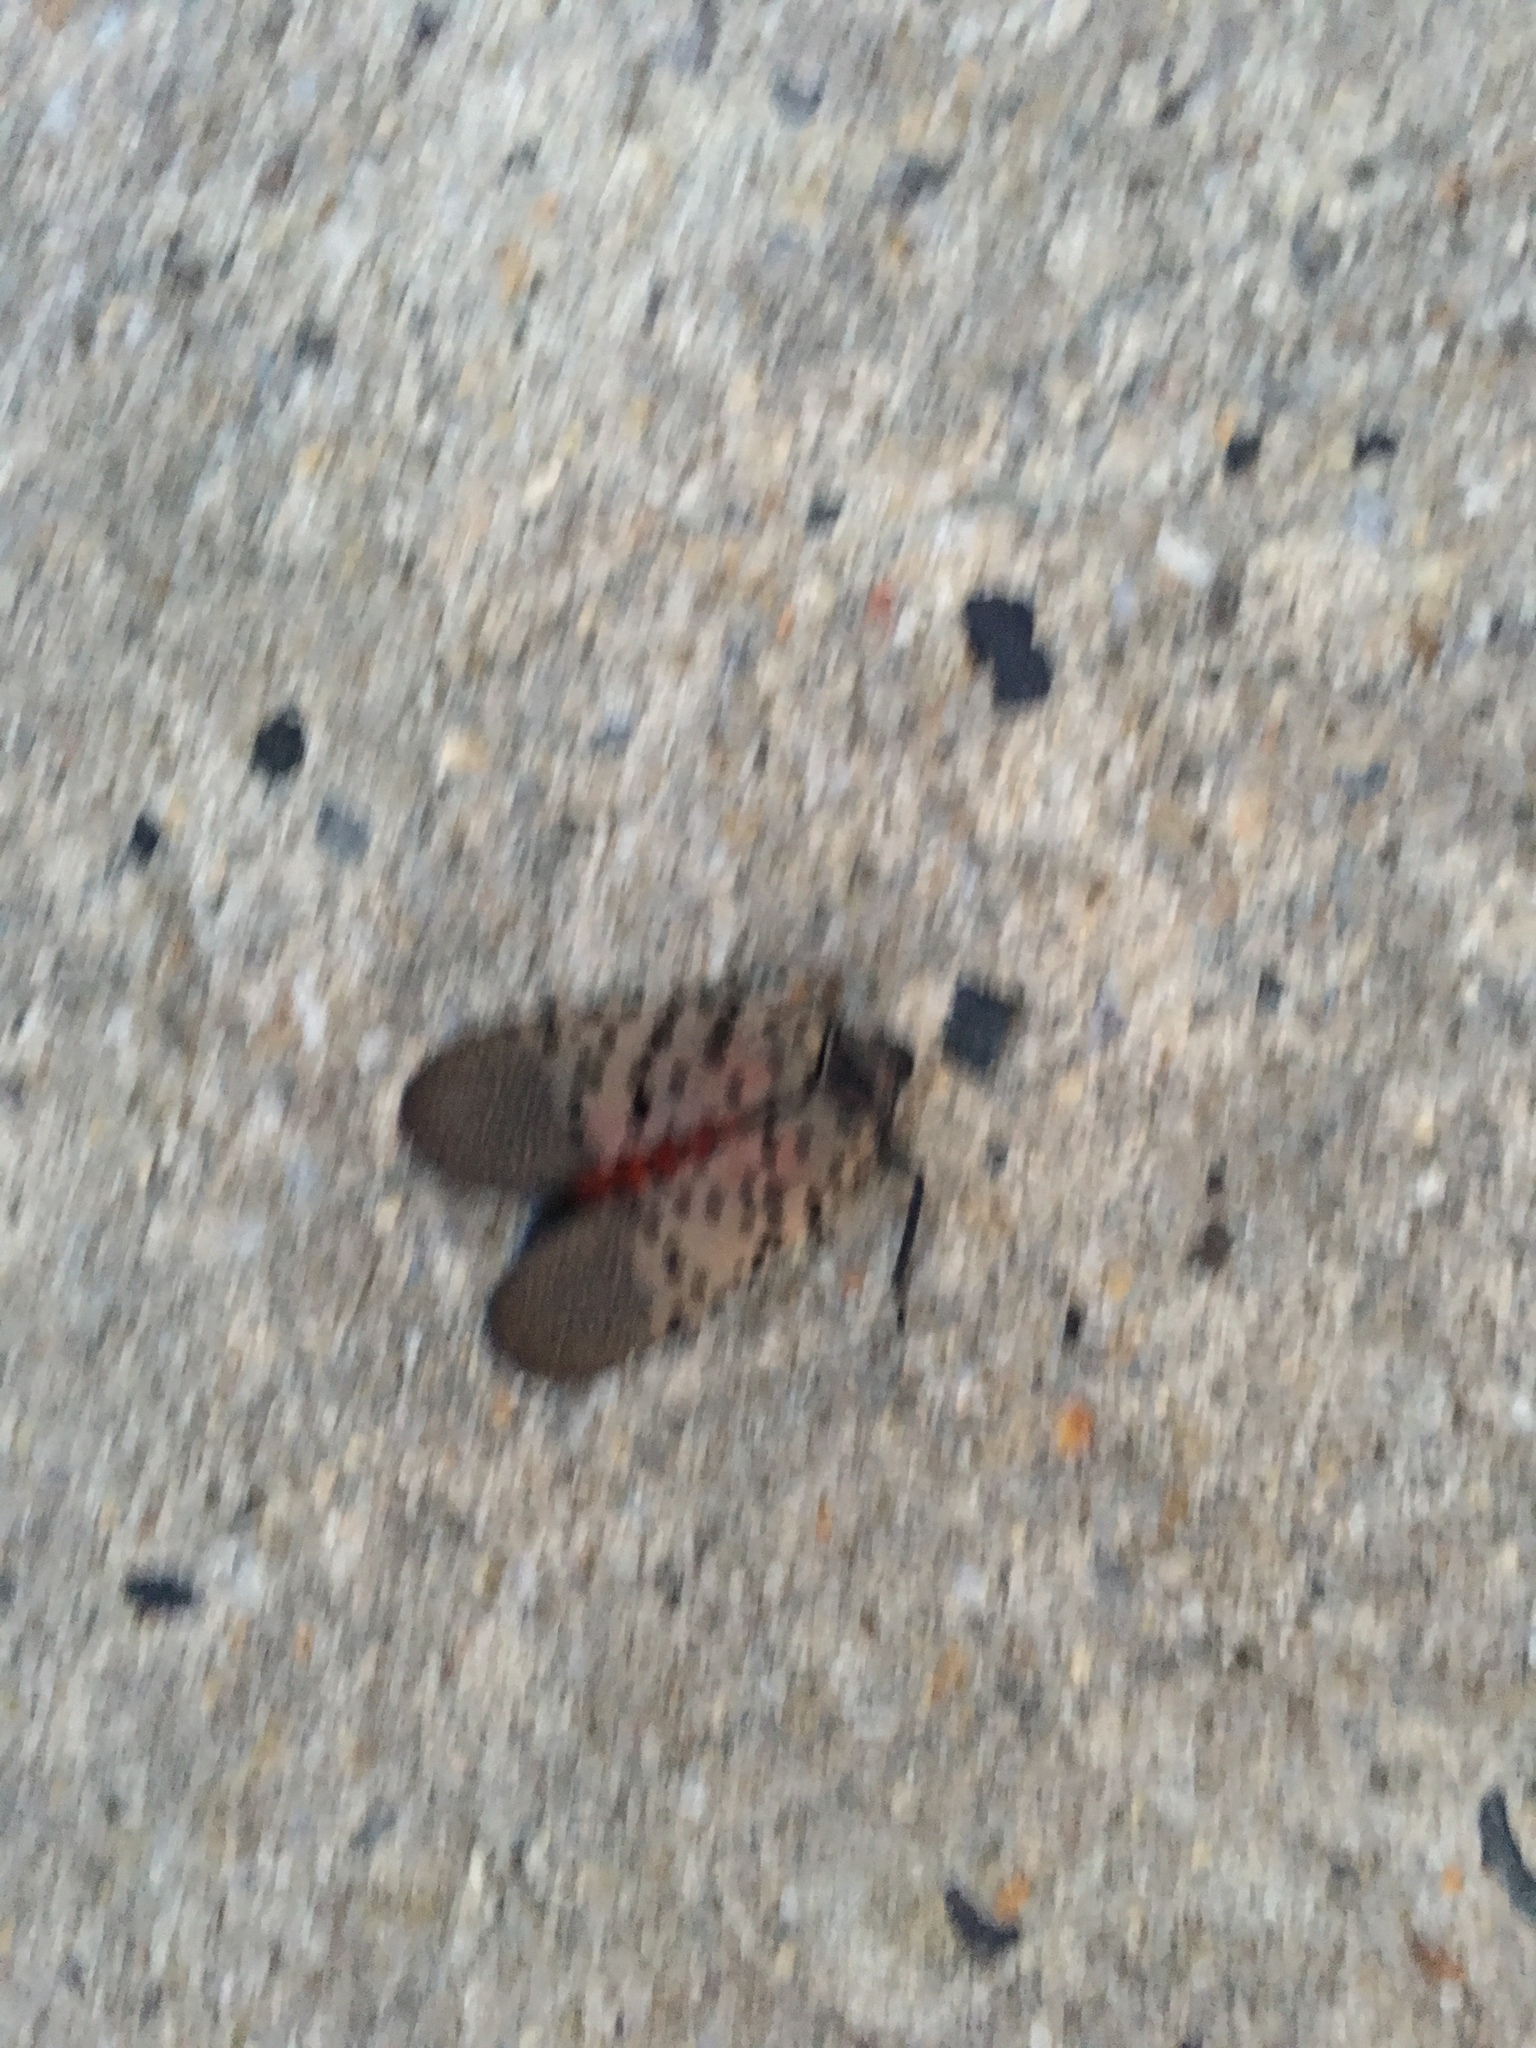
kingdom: Animalia
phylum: Arthropoda
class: Insecta
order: Hemiptera
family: Fulgoridae
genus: Lycorma
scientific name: Lycorma delicatula
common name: Spotted lanternfly
